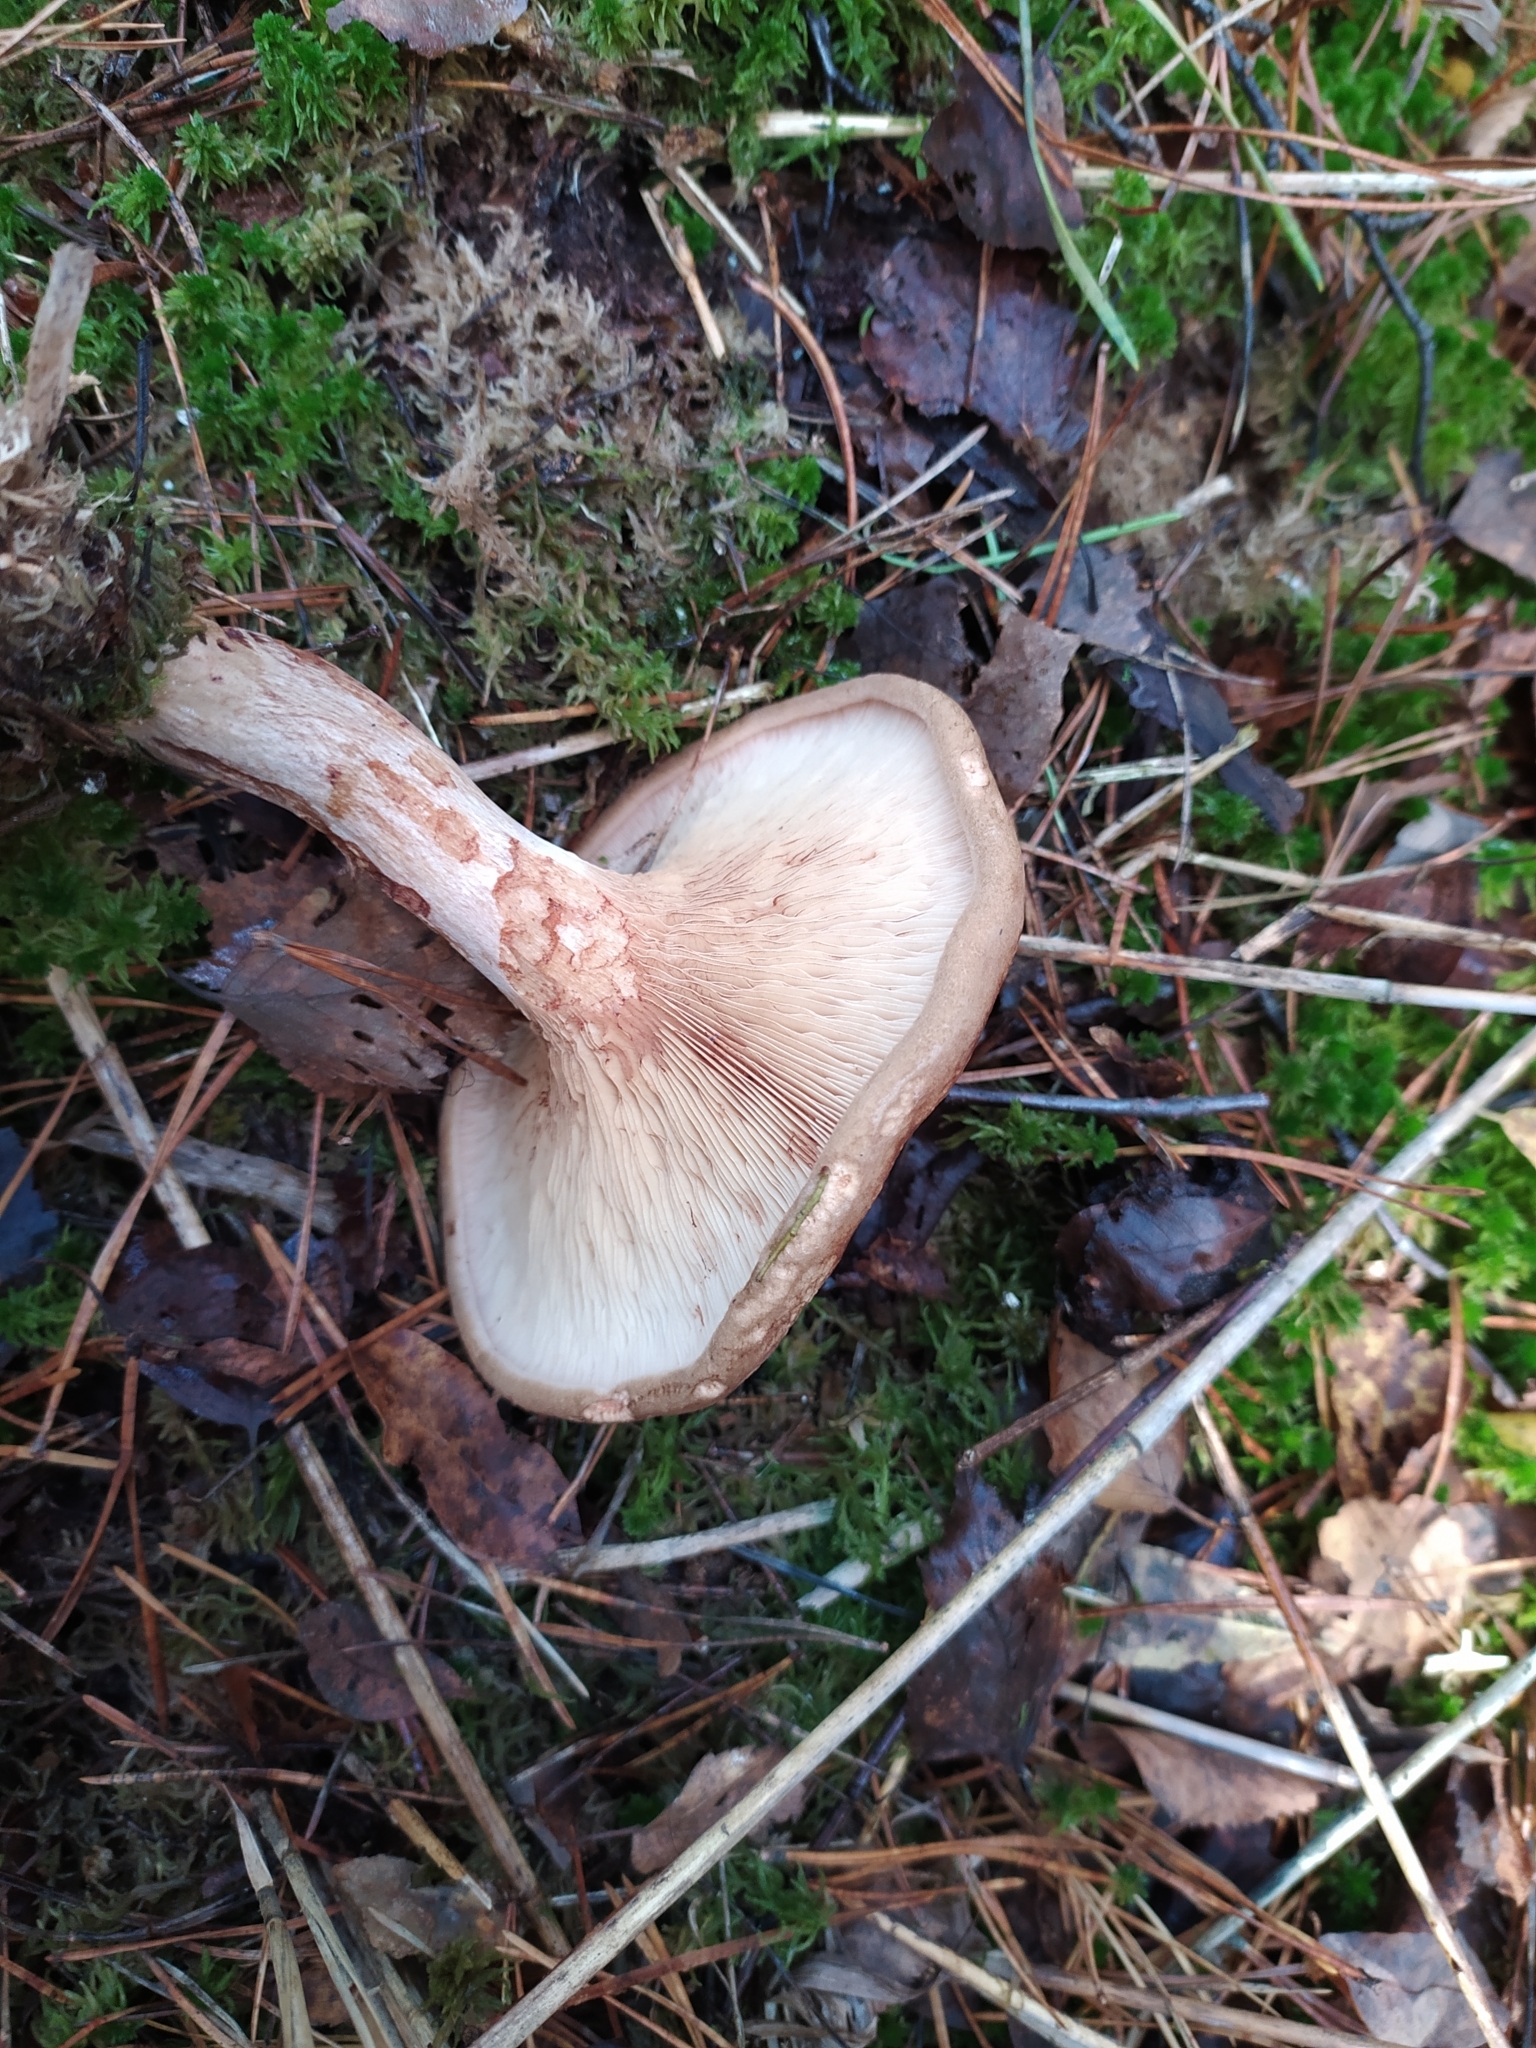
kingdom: Fungi
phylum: Basidiomycota
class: Agaricomycetes
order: Boletales
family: Paxillaceae
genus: Paxillus
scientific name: Paxillus involutus
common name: Brown roll rim
